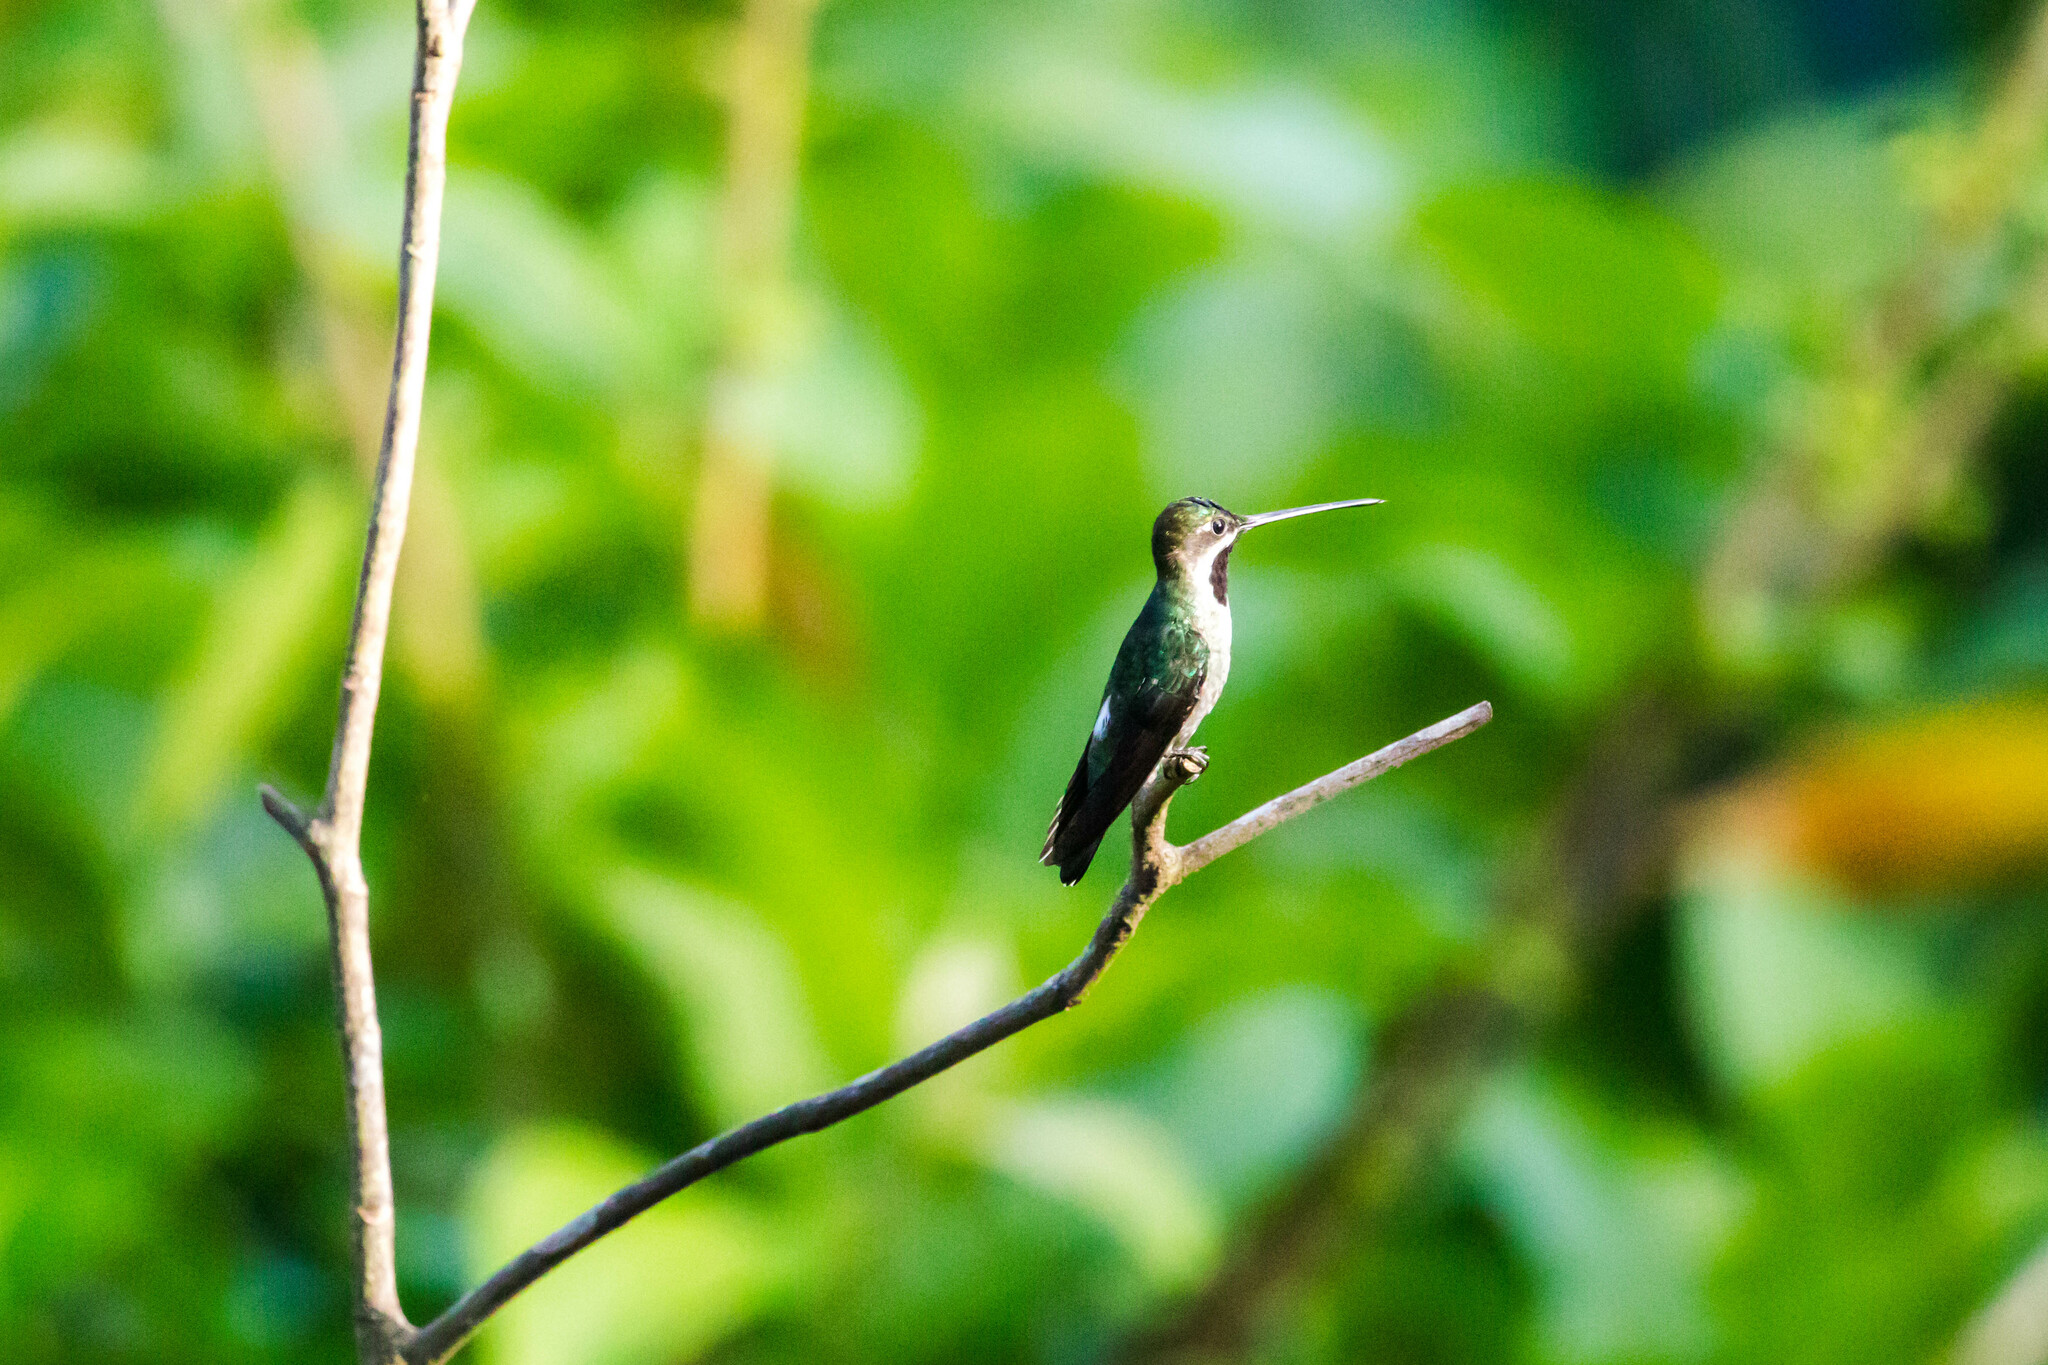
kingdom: Animalia
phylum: Chordata
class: Aves
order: Apodiformes
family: Trochilidae
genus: Heliomaster
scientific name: Heliomaster longirostris
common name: Long-billed starthroat
